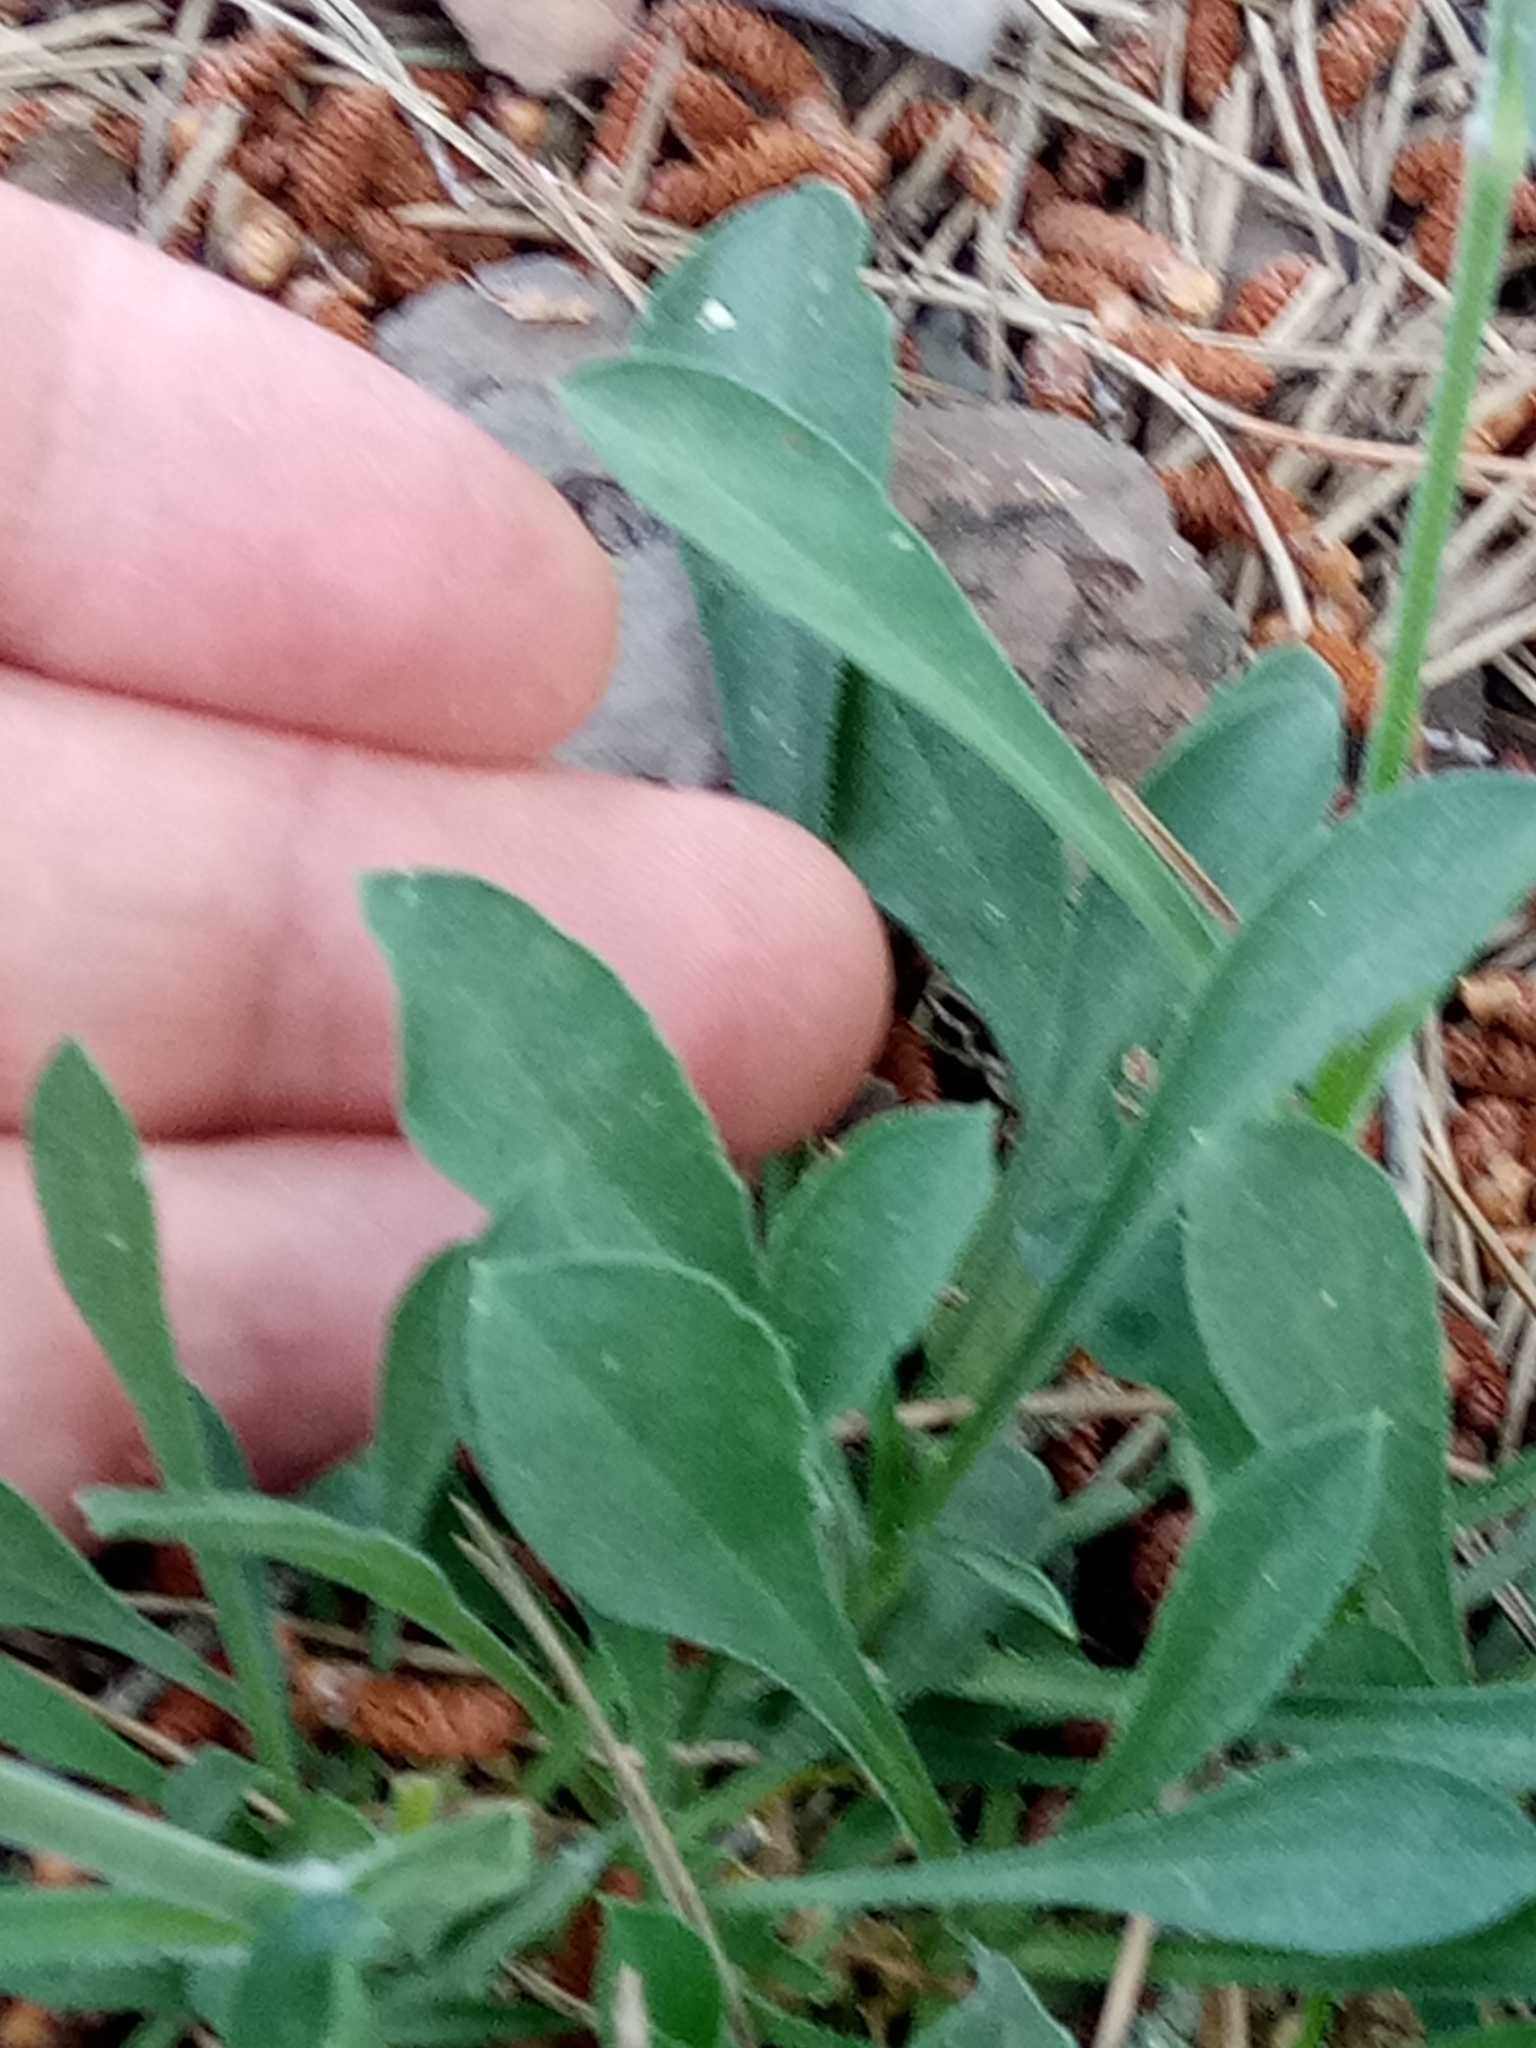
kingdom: Plantae
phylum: Tracheophyta
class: Magnoliopsida
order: Caryophyllales
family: Caryophyllaceae
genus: Silene
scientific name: Silene patula
